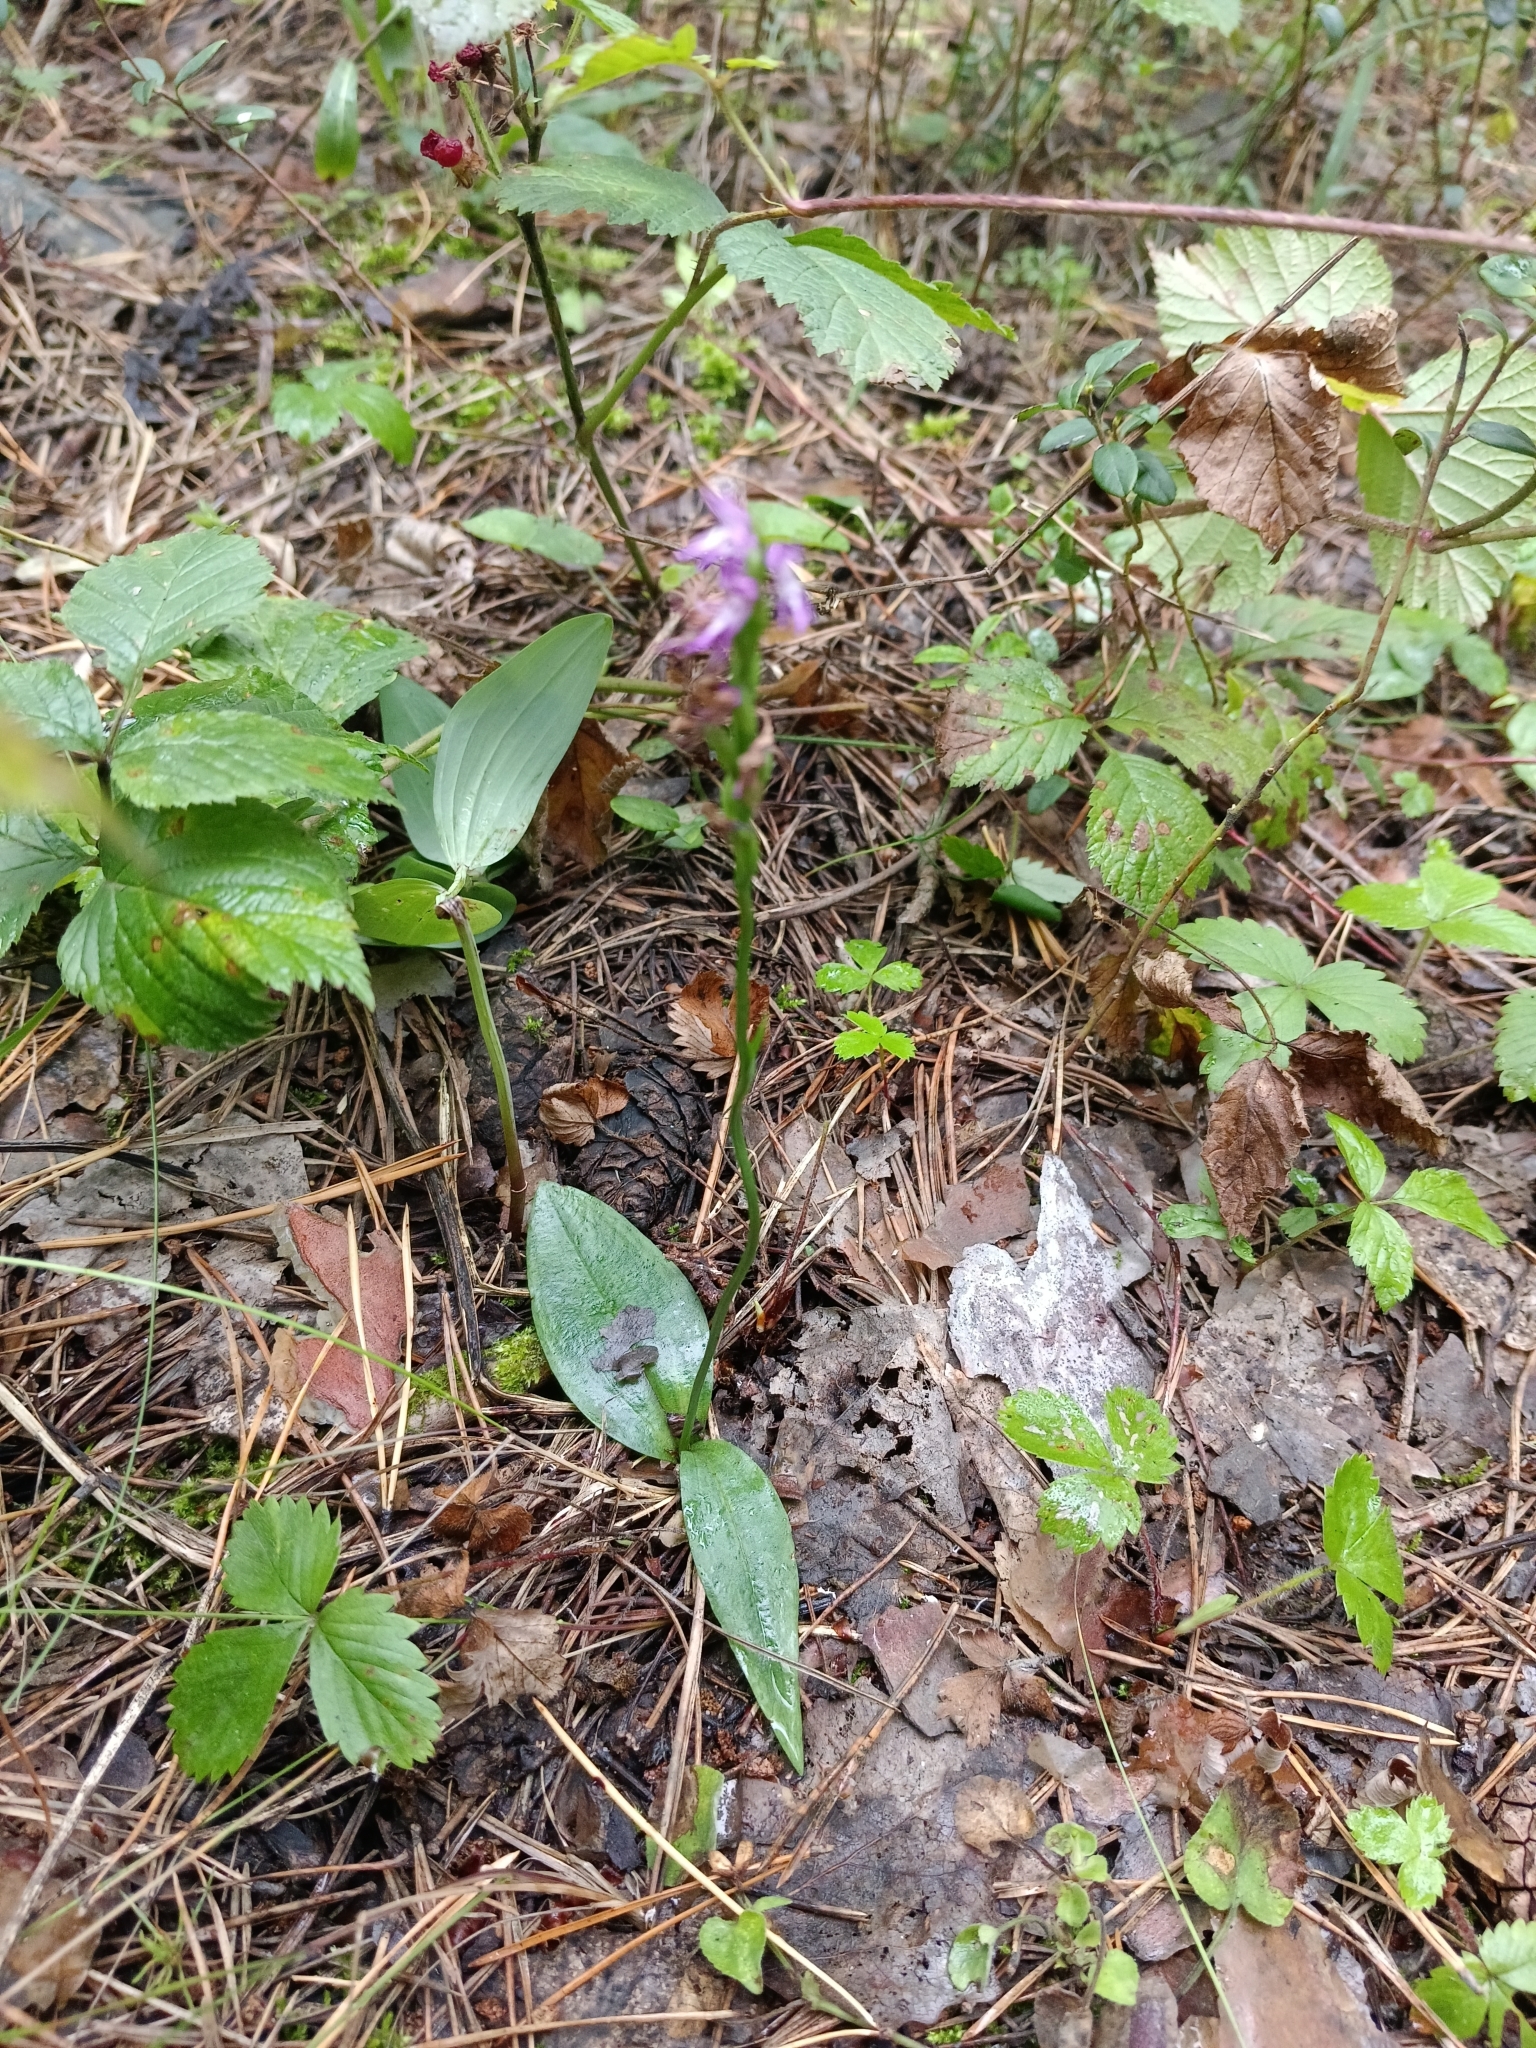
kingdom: Plantae
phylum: Tracheophyta
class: Liliopsida
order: Asparagales
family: Orchidaceae
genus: Hemipilia
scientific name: Hemipilia cucullata
